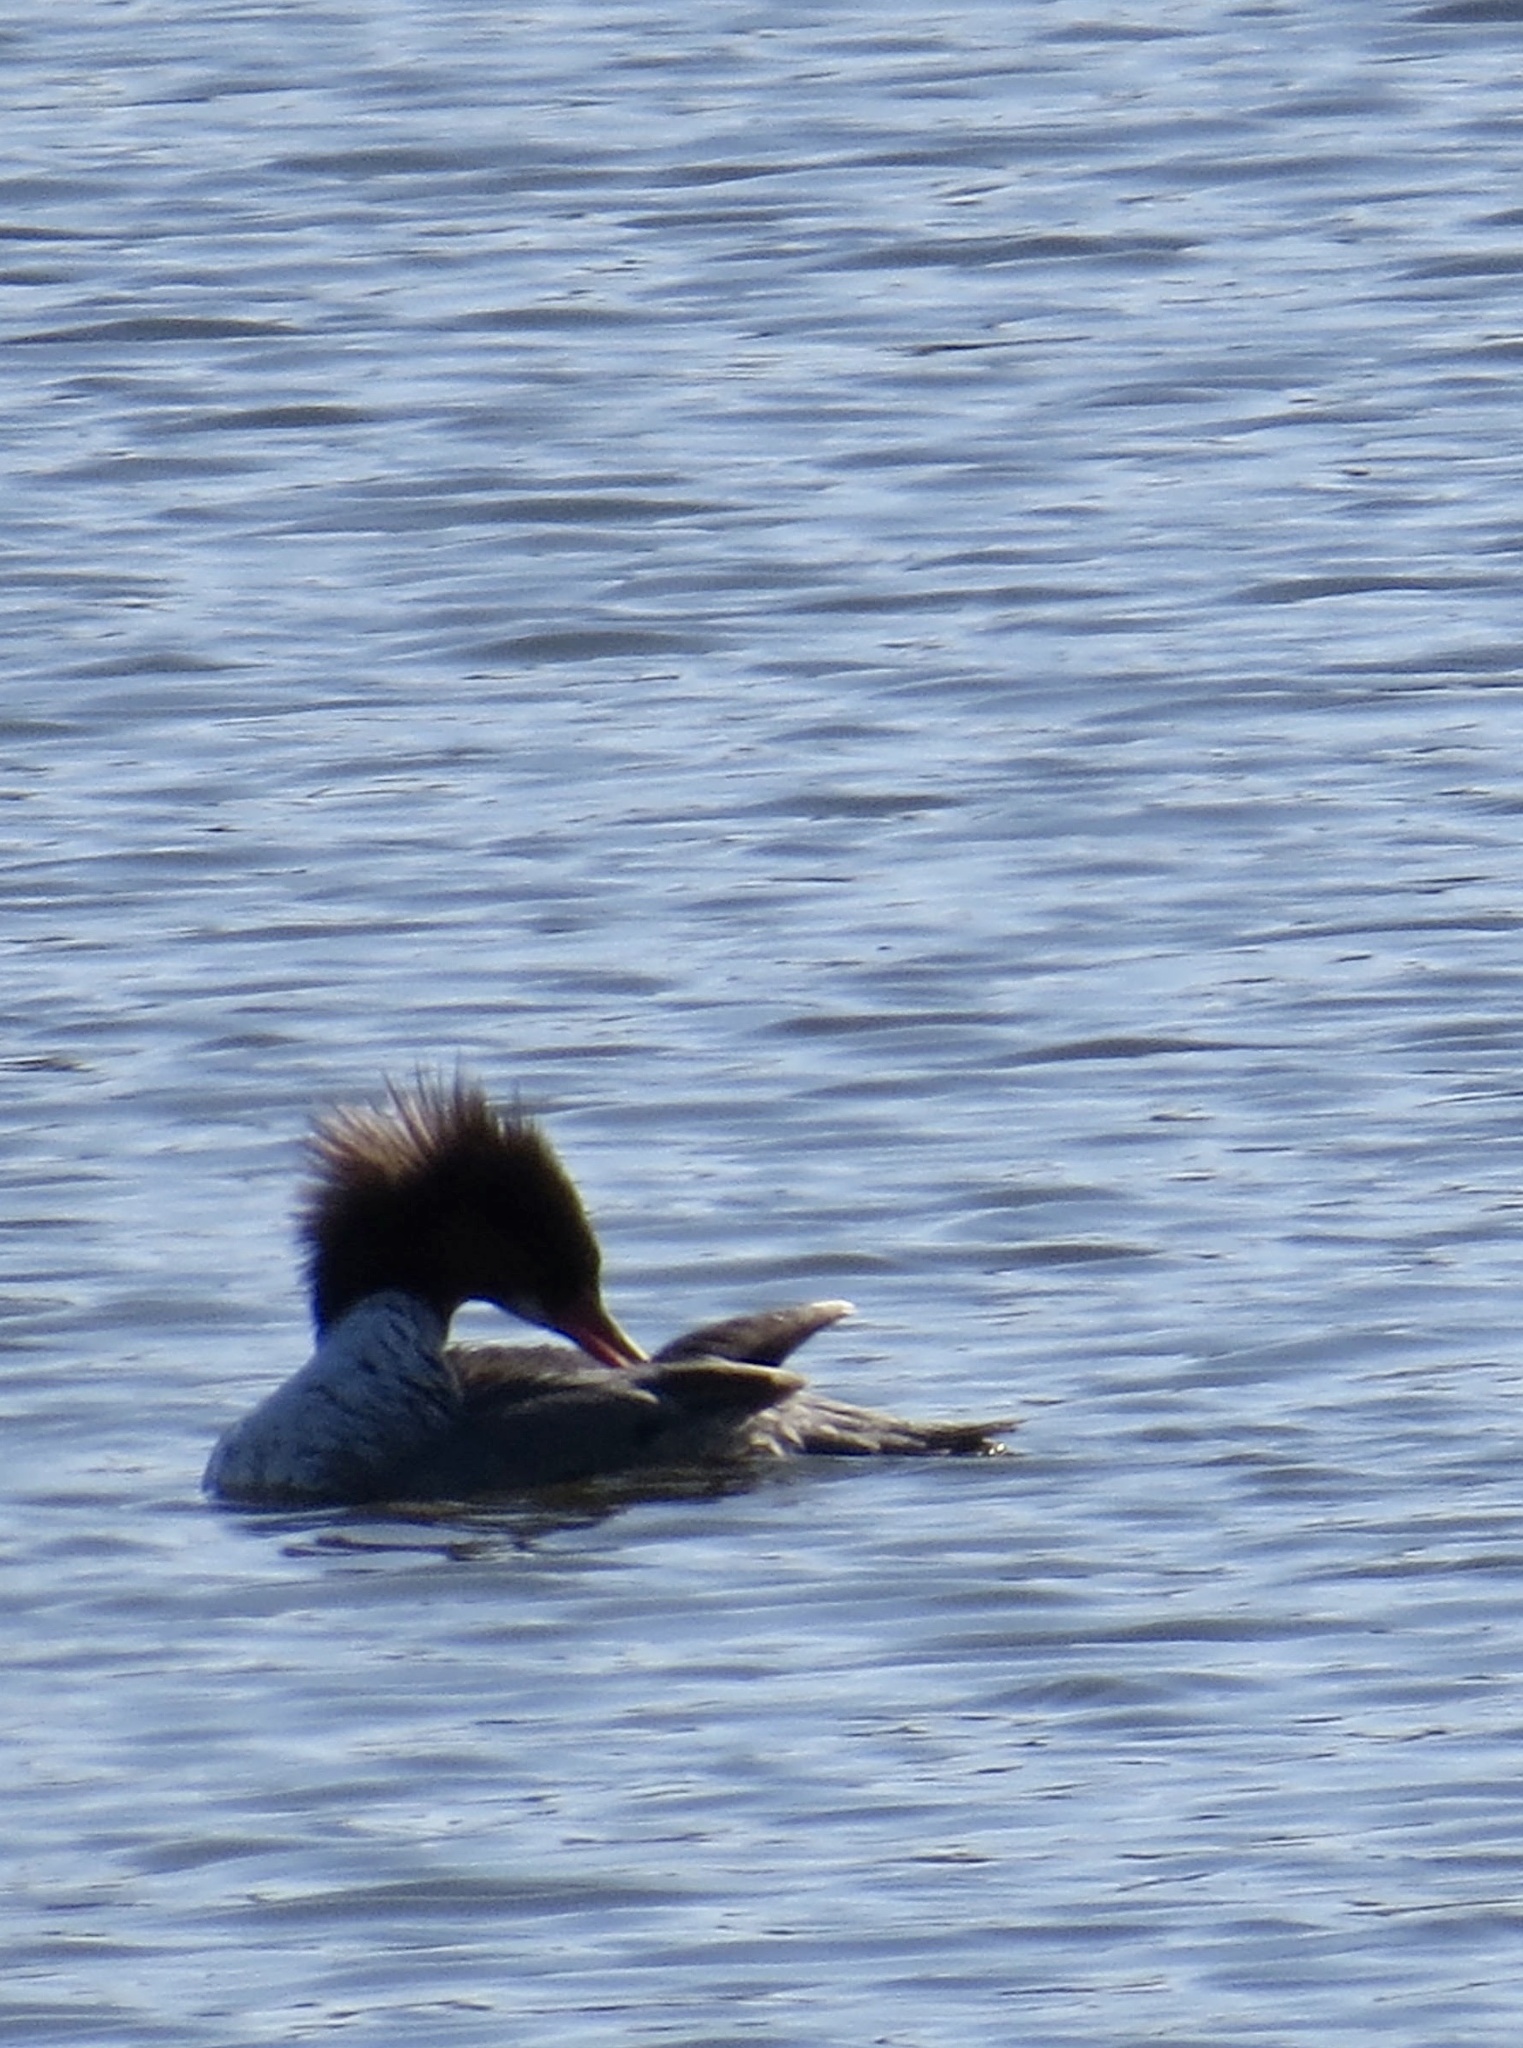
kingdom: Animalia
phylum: Chordata
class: Aves
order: Anseriformes
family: Anatidae
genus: Mergus
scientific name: Mergus merganser
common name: Common merganser
